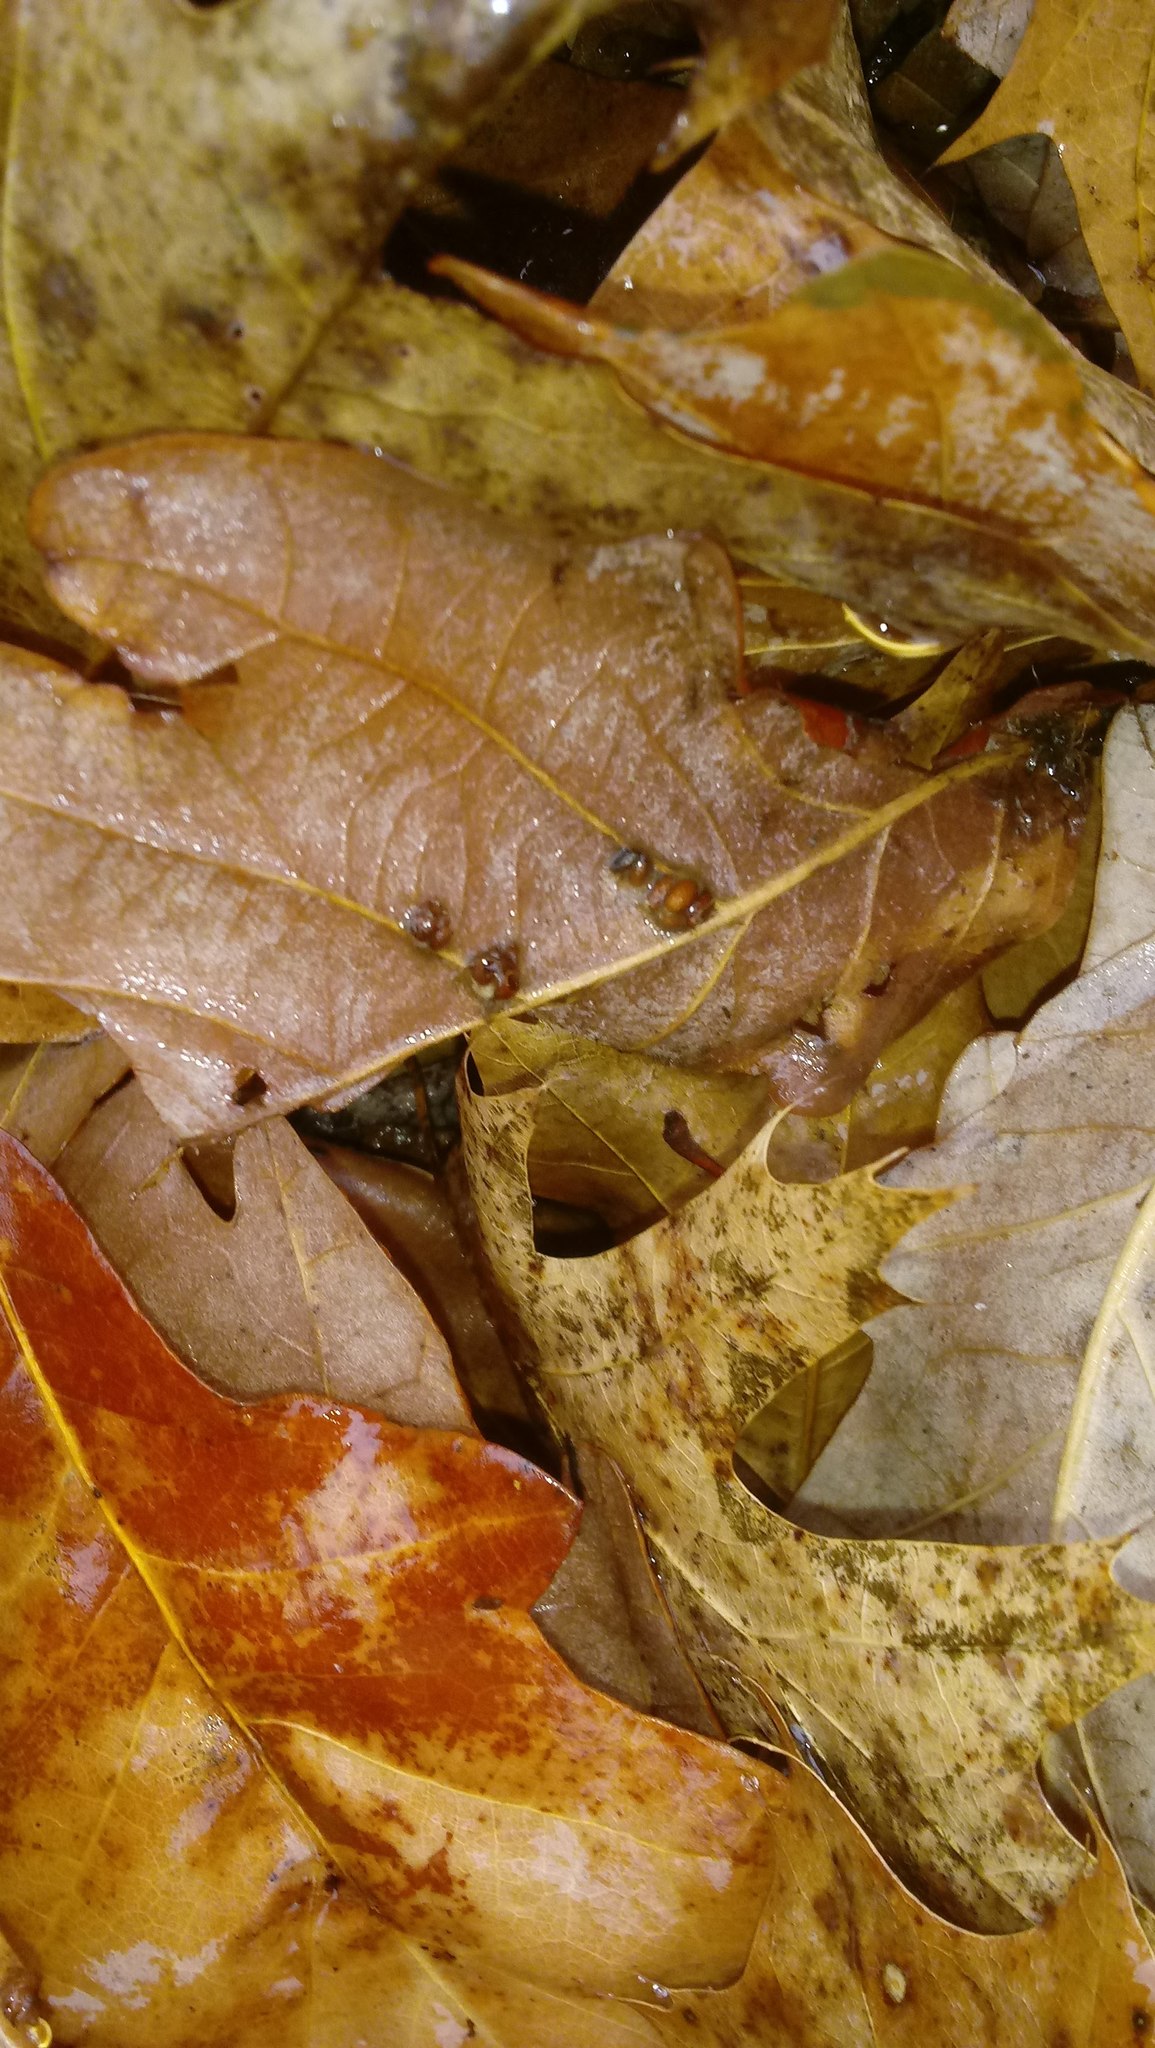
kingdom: Animalia
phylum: Arthropoda
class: Insecta
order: Hymenoptera
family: Cynipidae
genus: Andricus
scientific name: Andricus Druon ignotum
